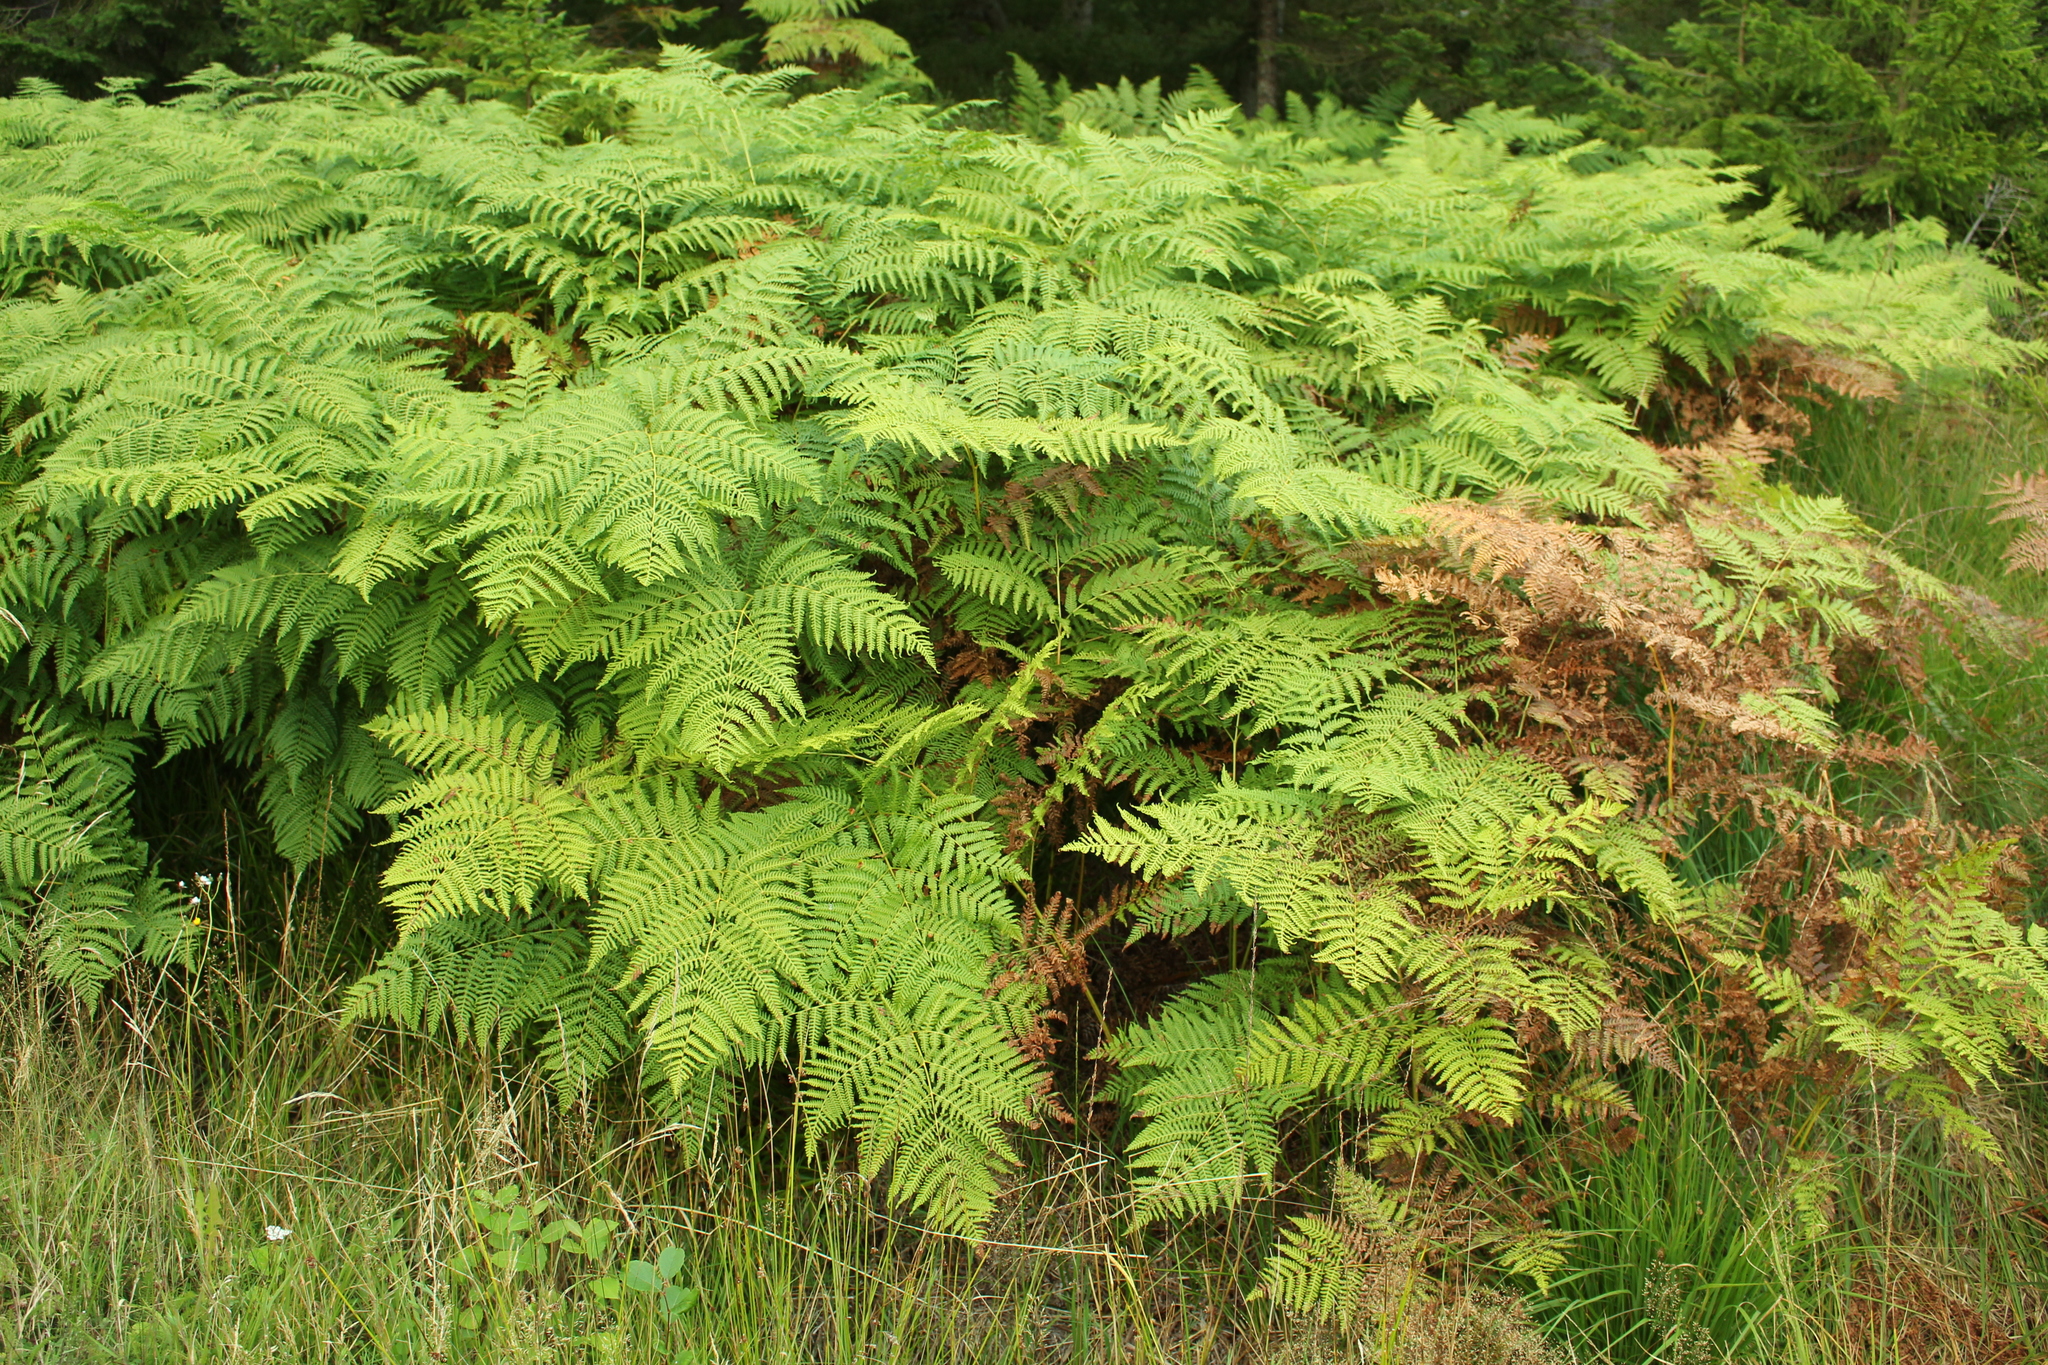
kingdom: Plantae
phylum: Tracheophyta
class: Polypodiopsida
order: Polypodiales
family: Dennstaedtiaceae
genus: Pteridium
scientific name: Pteridium aquilinum
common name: Bracken
